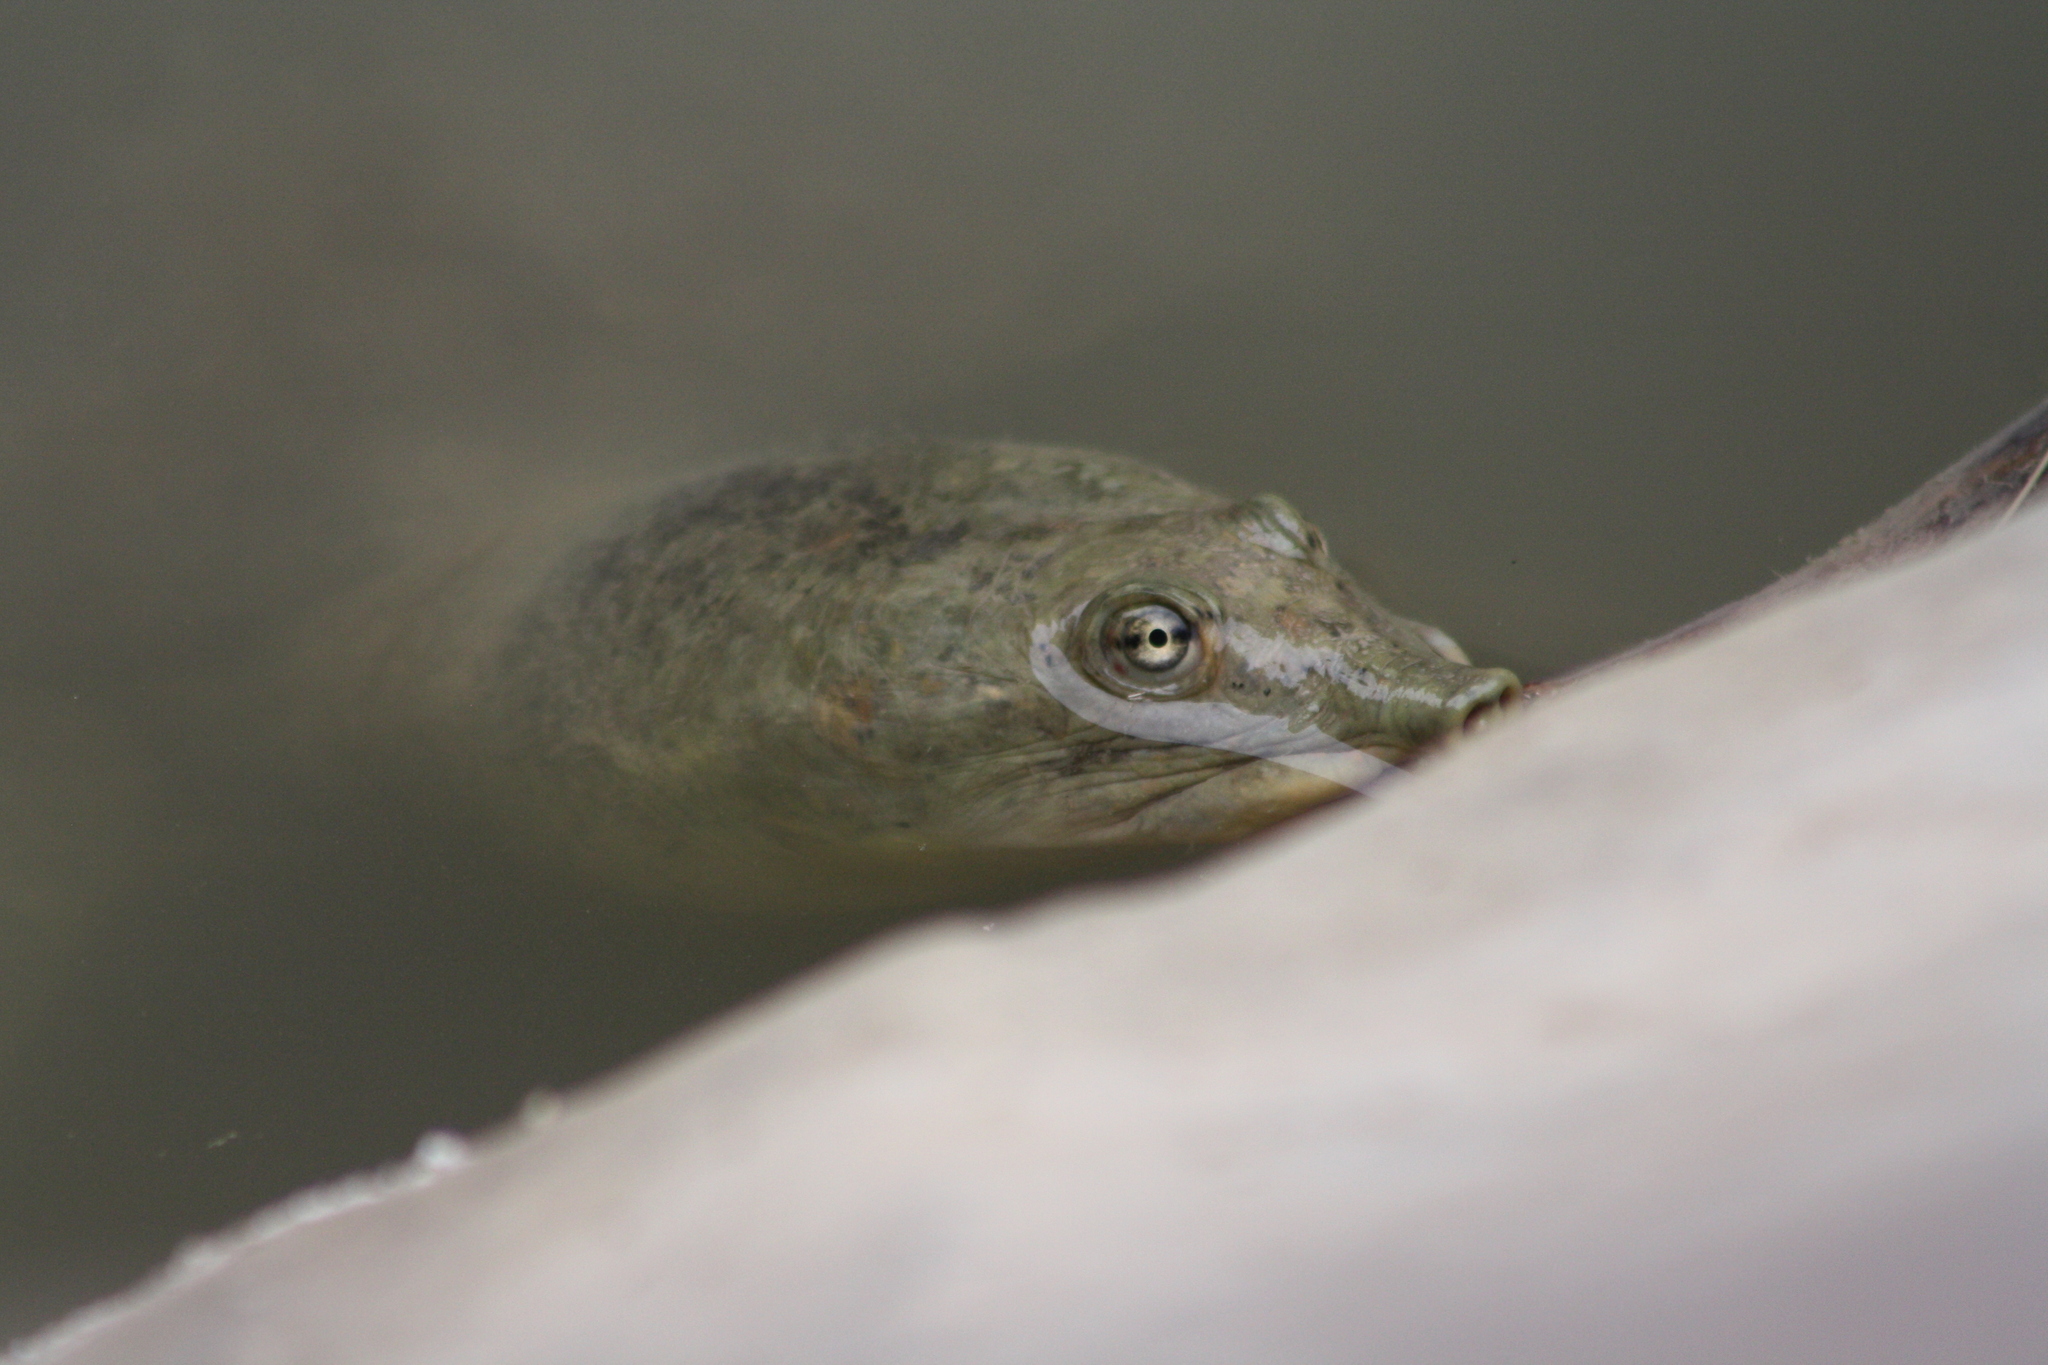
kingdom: Animalia
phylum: Chordata
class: Testudines
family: Trionychidae
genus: Apalone
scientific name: Apalone spinifera
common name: Spiny softshell turtle
